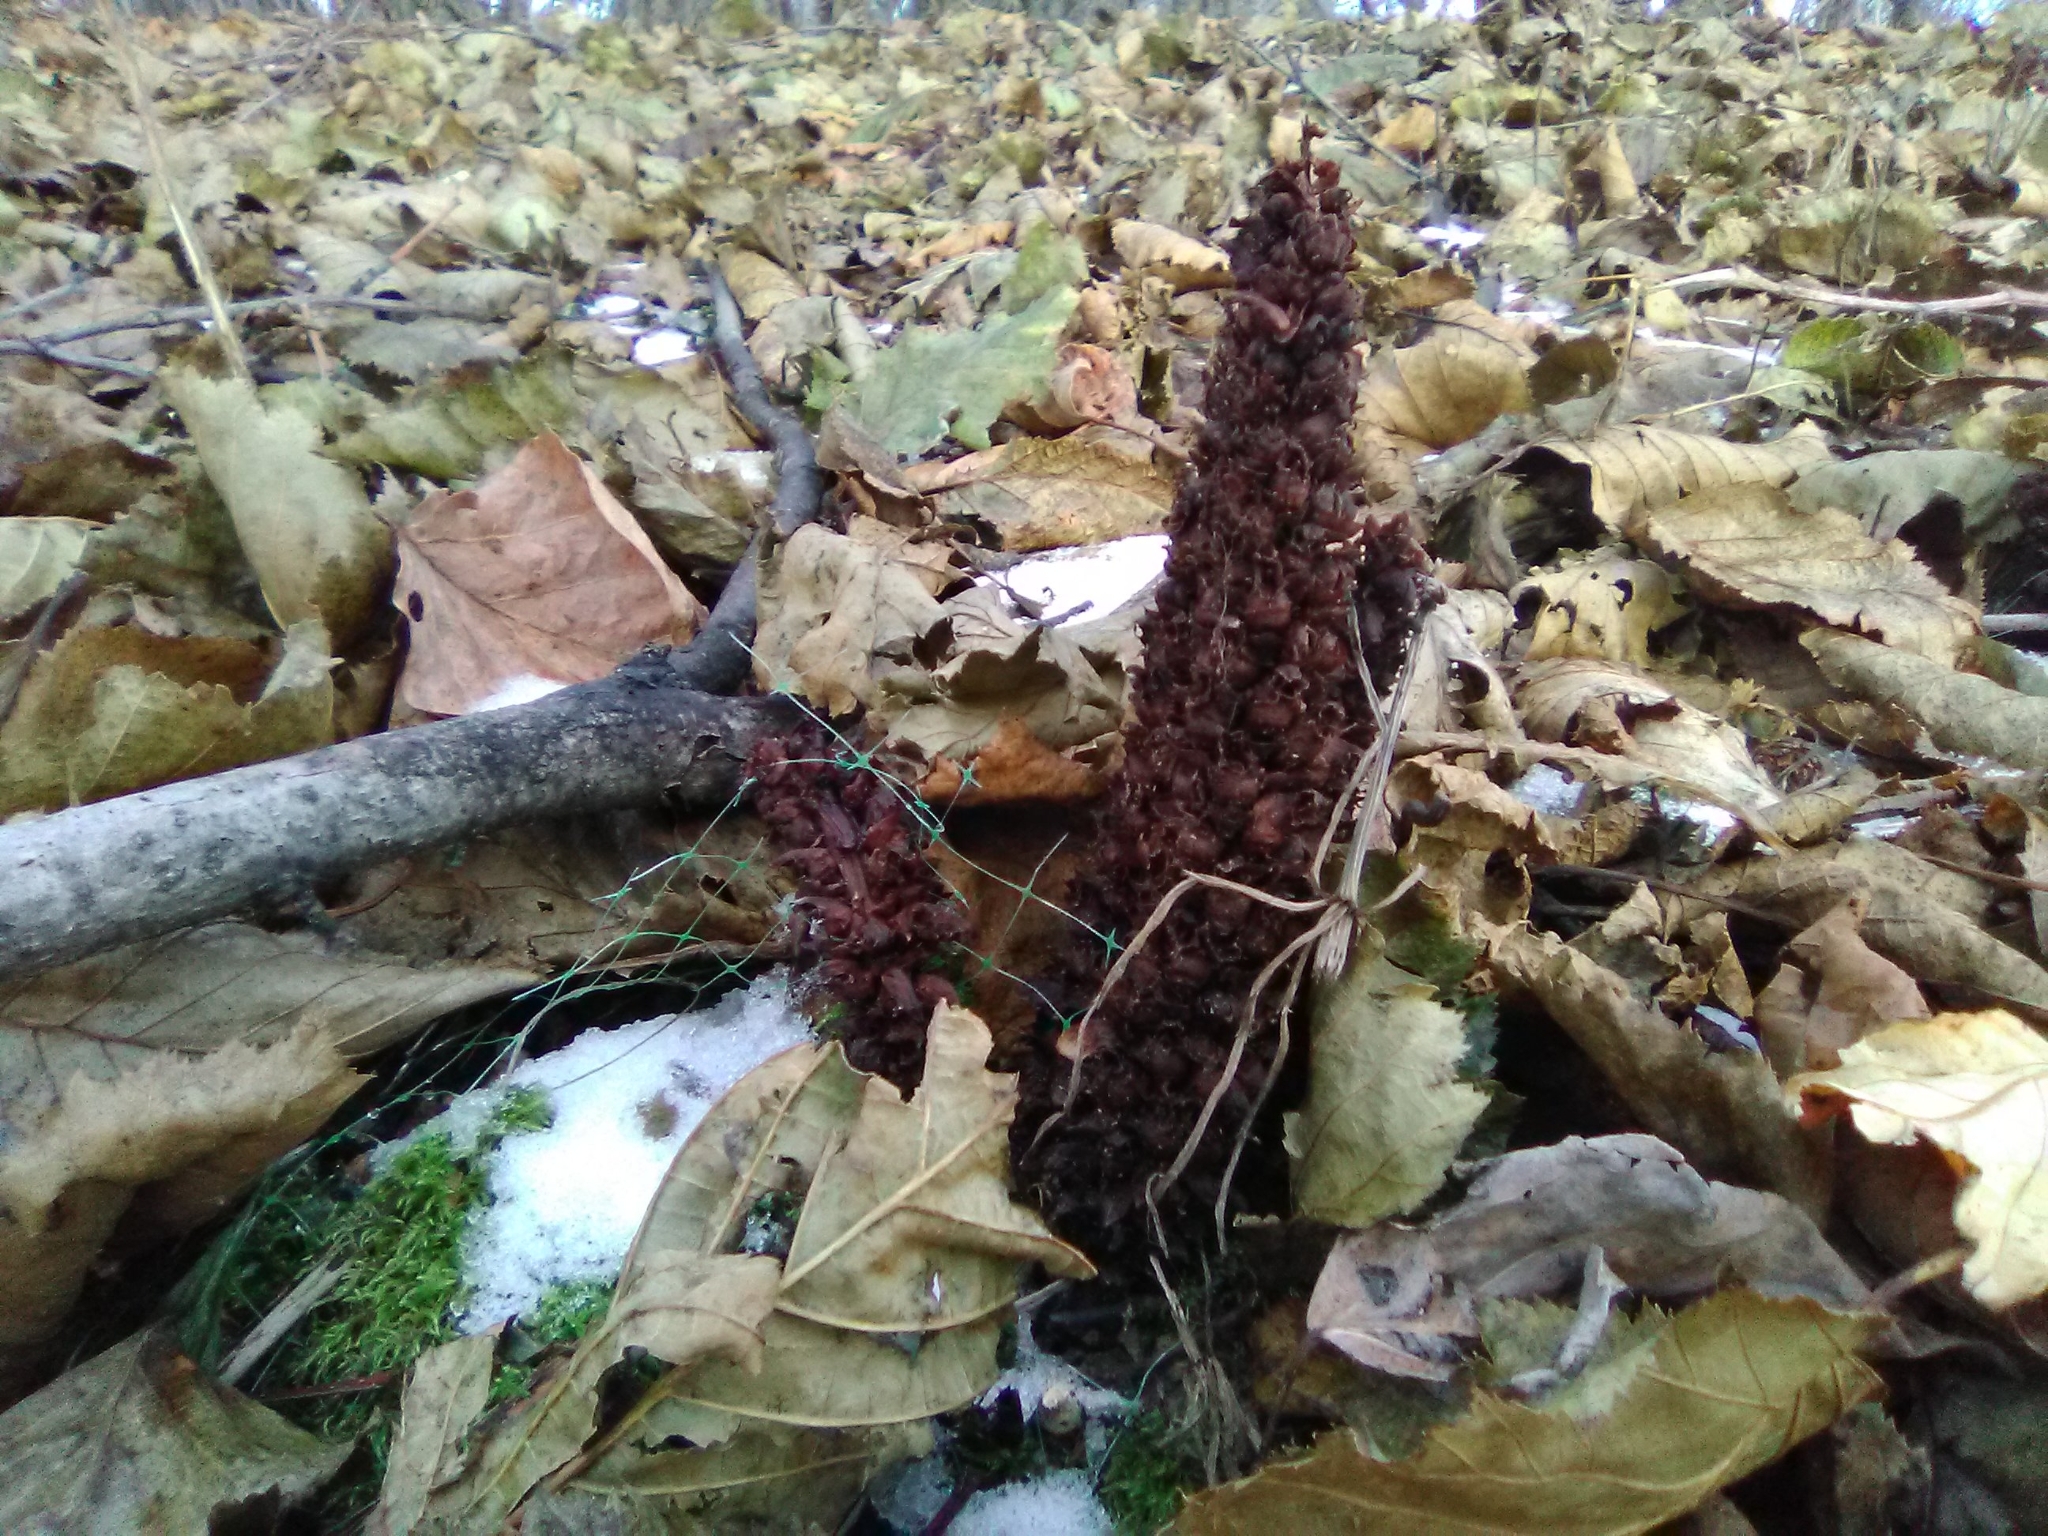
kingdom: Plantae
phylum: Tracheophyta
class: Magnoliopsida
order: Lamiales
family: Orobanchaceae
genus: Boschniakia
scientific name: Boschniakia rossica
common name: Poque
